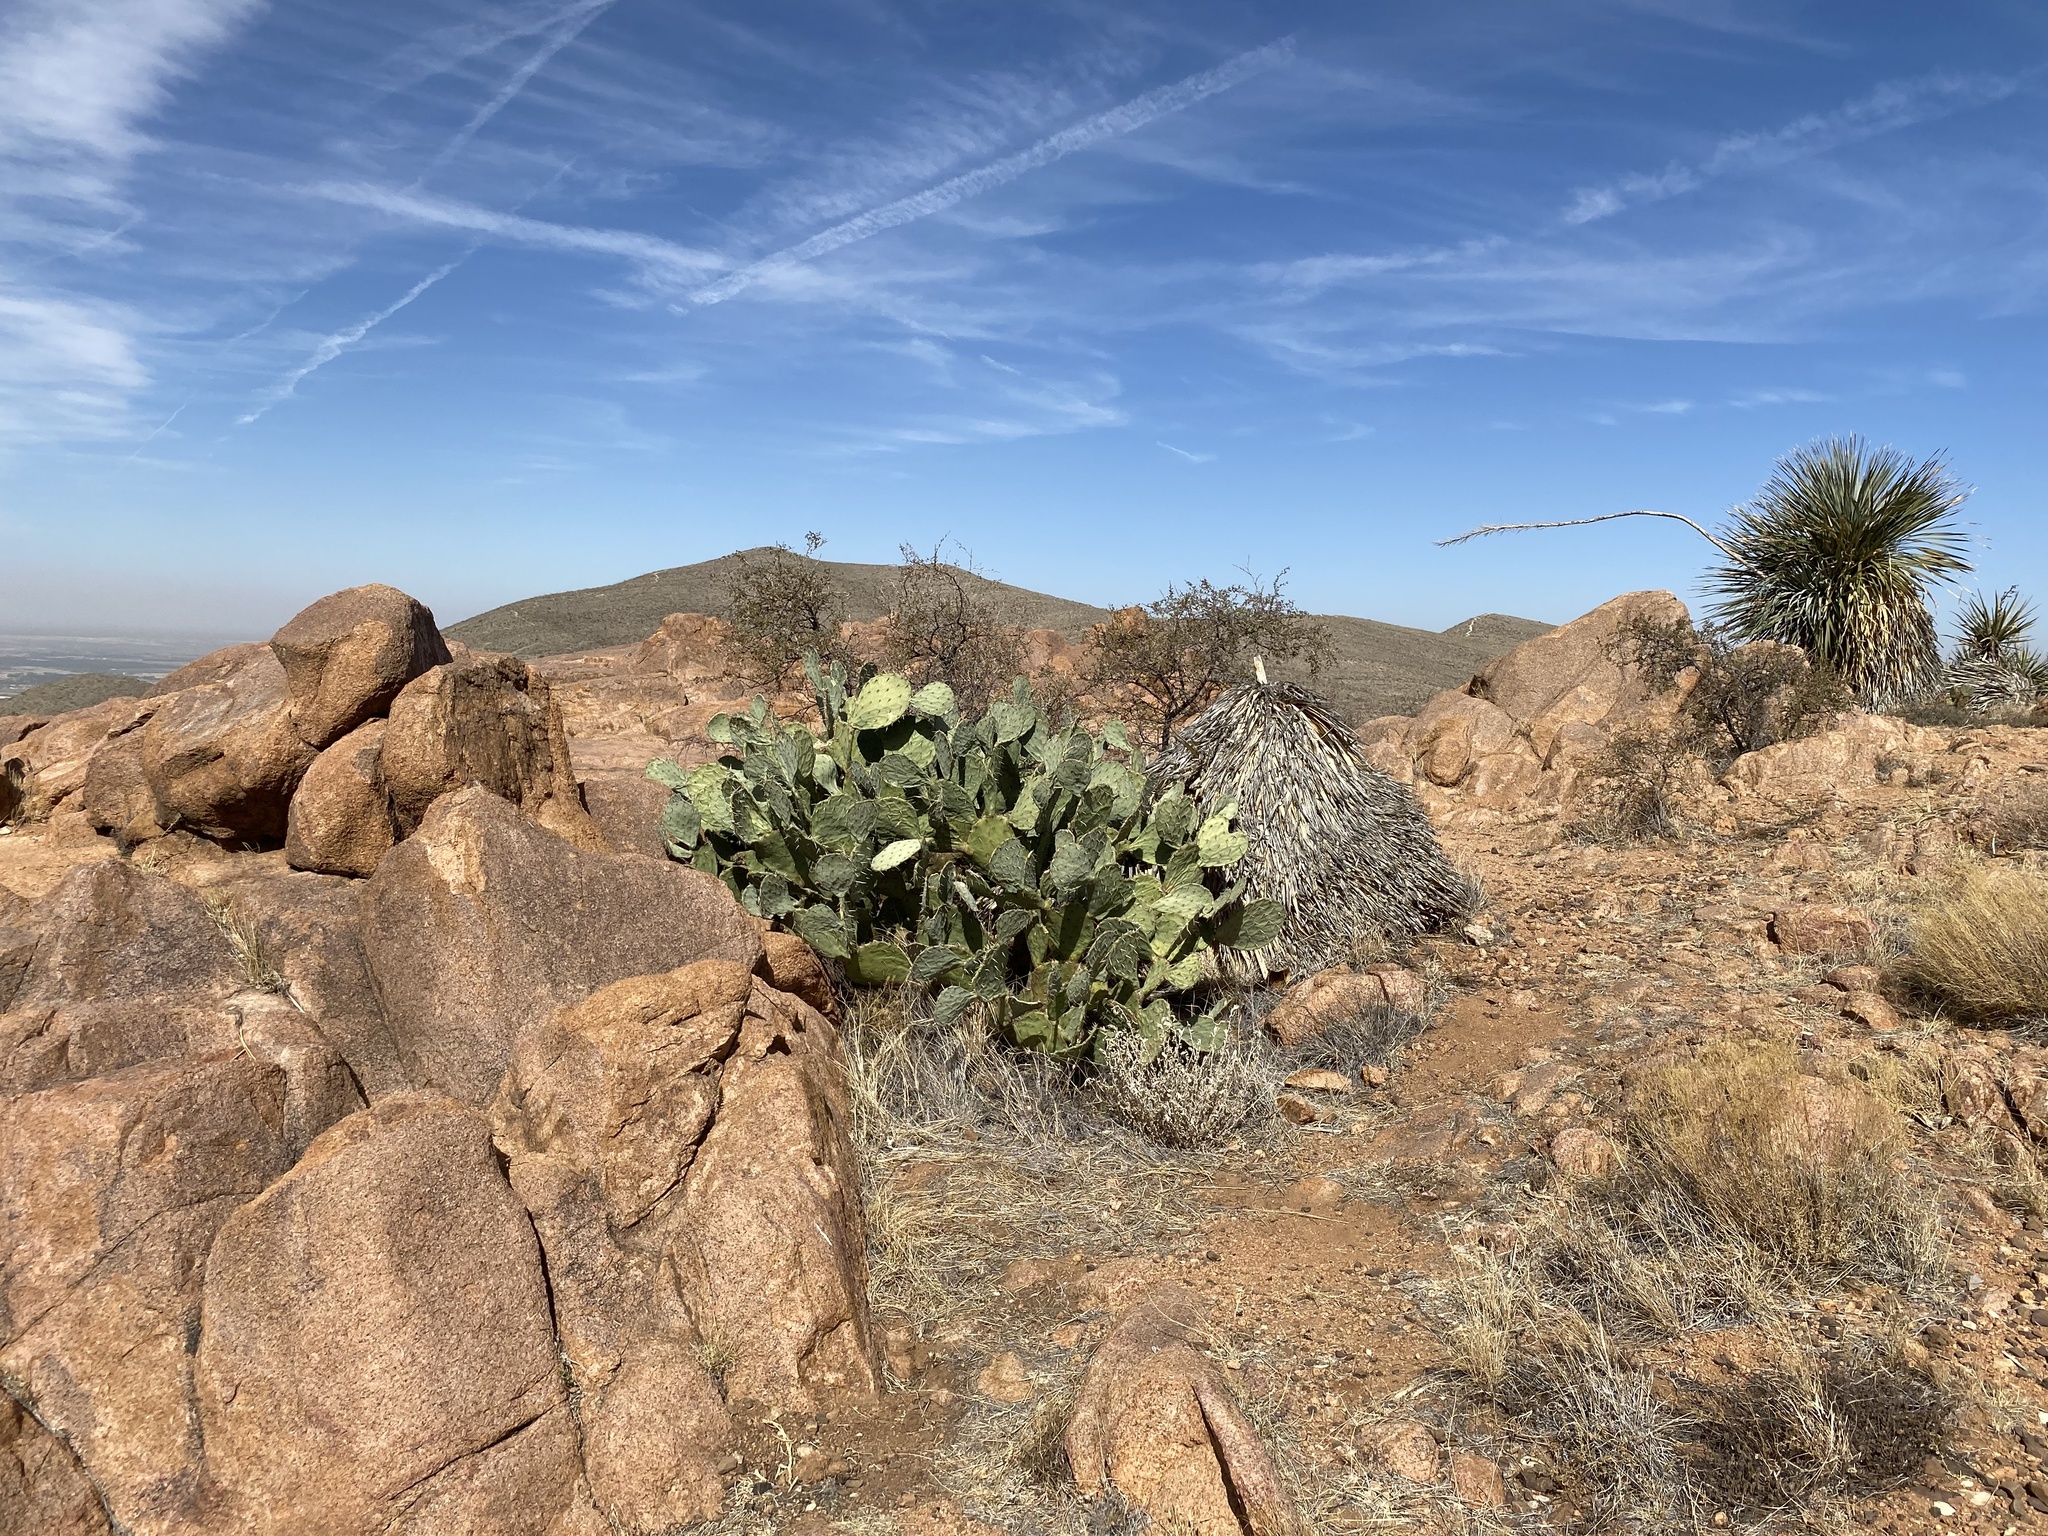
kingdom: Plantae
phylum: Tracheophyta
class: Magnoliopsida
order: Caryophyllales
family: Cactaceae
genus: Opuntia
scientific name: Opuntia engelmannii
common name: Cactus-apple
